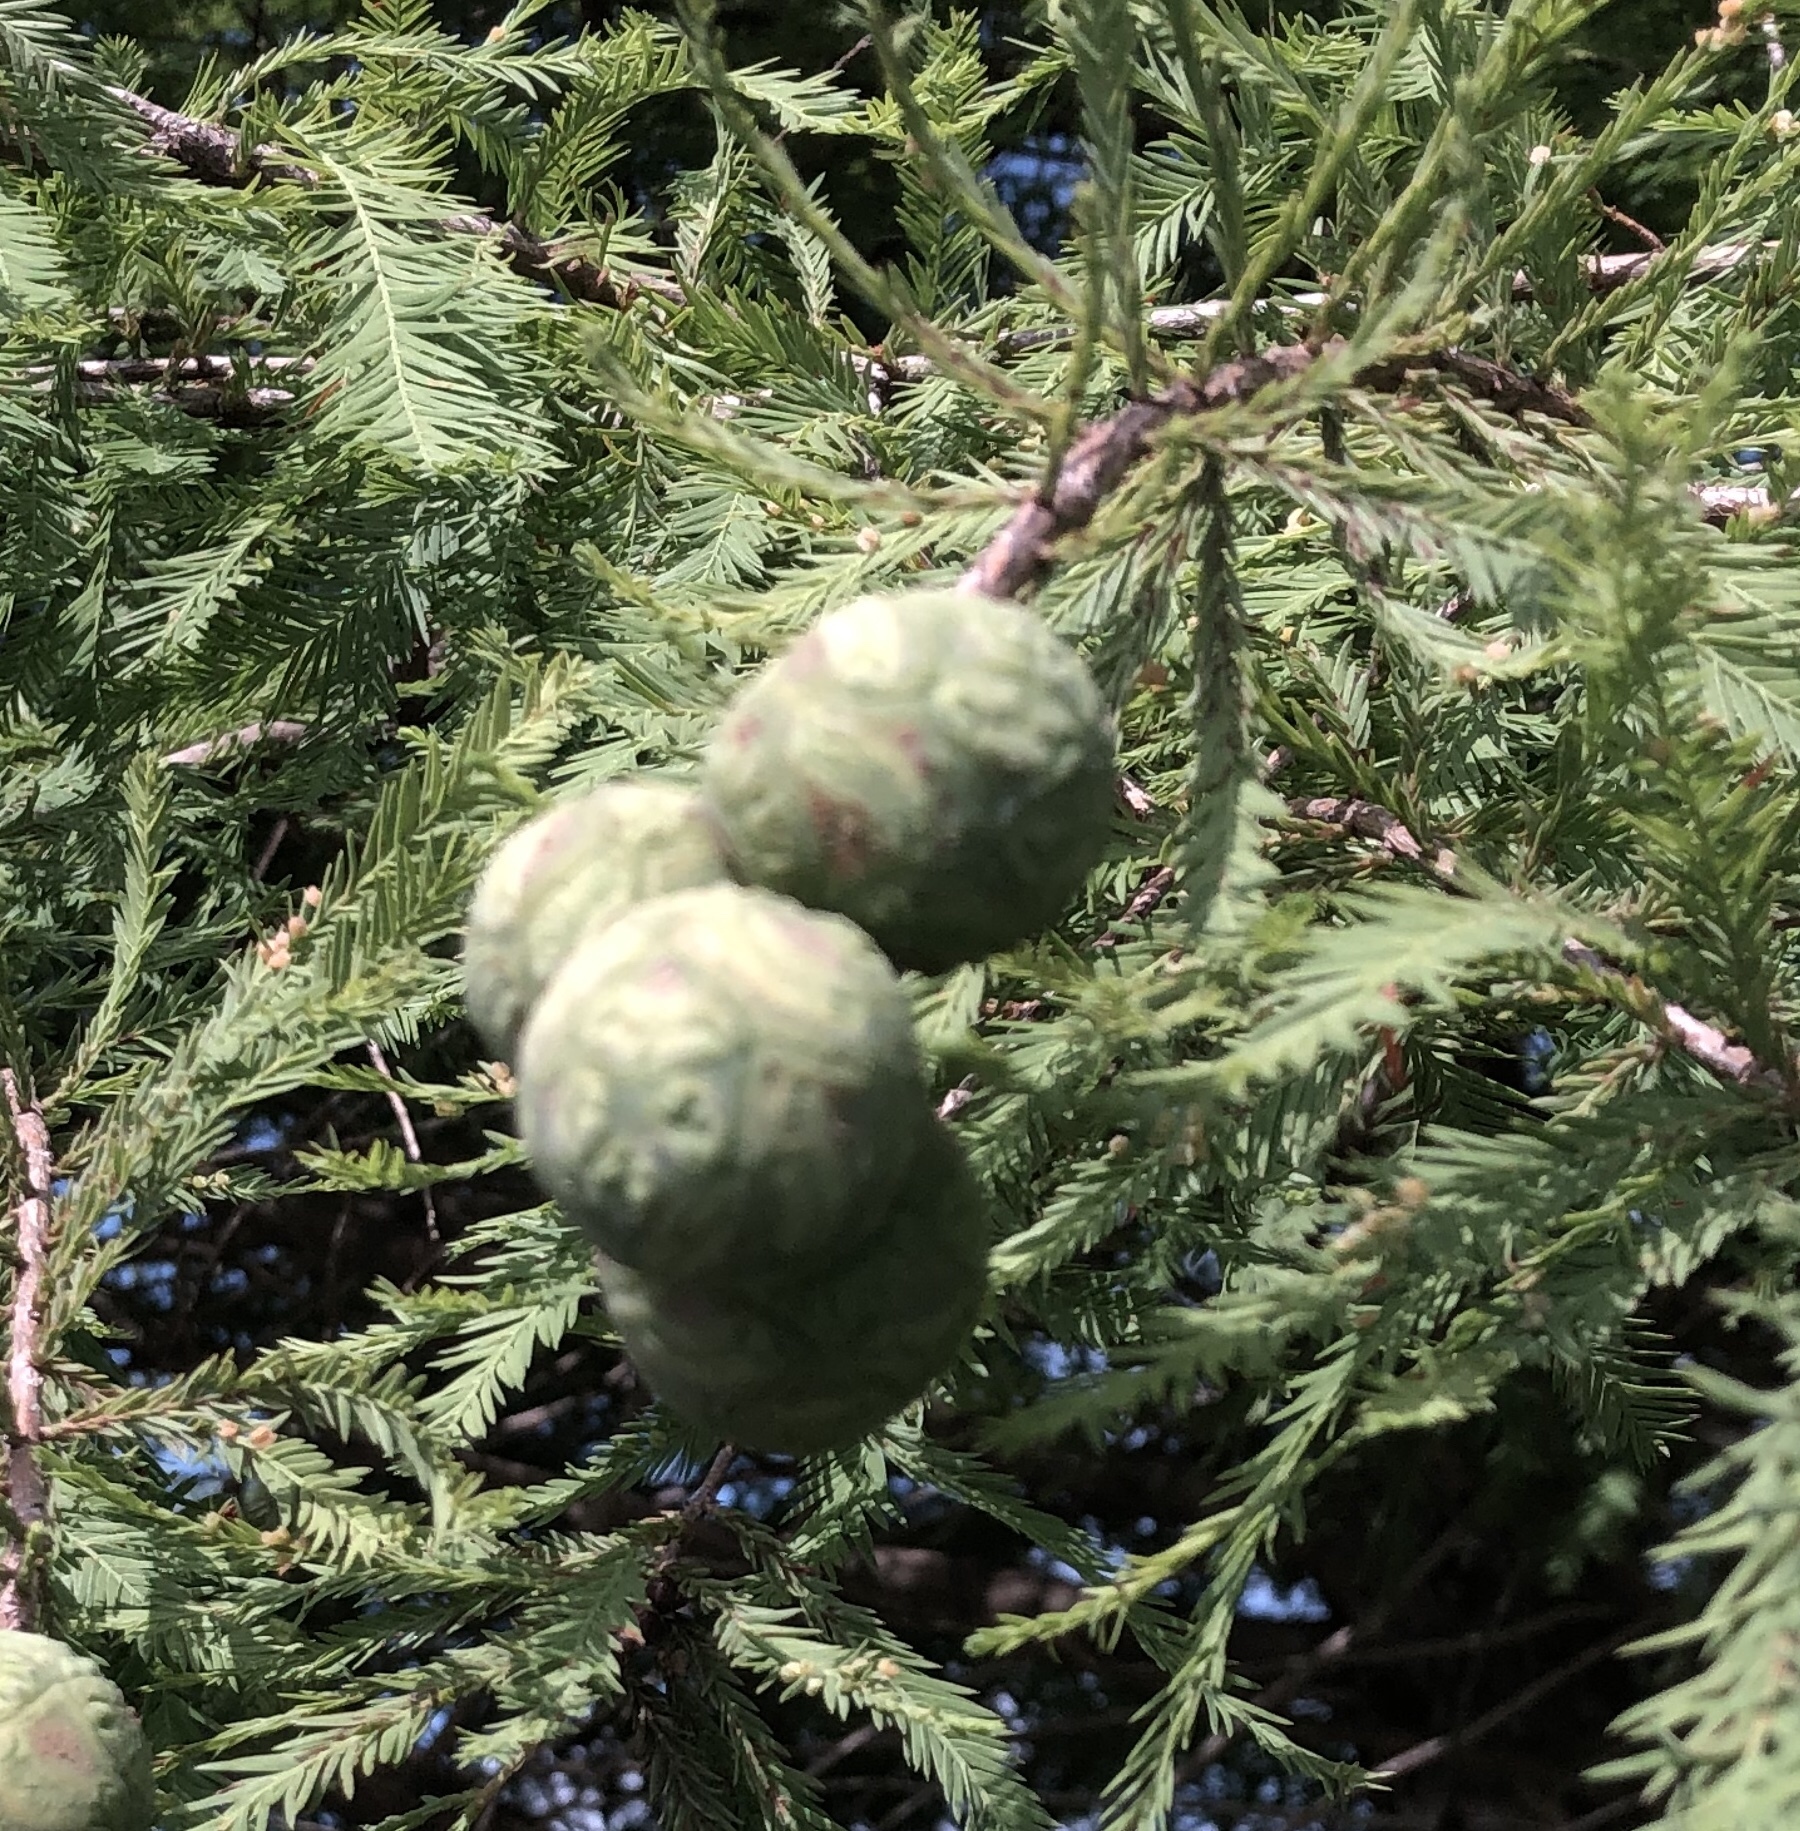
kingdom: Plantae
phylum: Tracheophyta
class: Pinopsida
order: Pinales
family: Cupressaceae
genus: Taxodium
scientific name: Taxodium distichum
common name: Bald cypress
